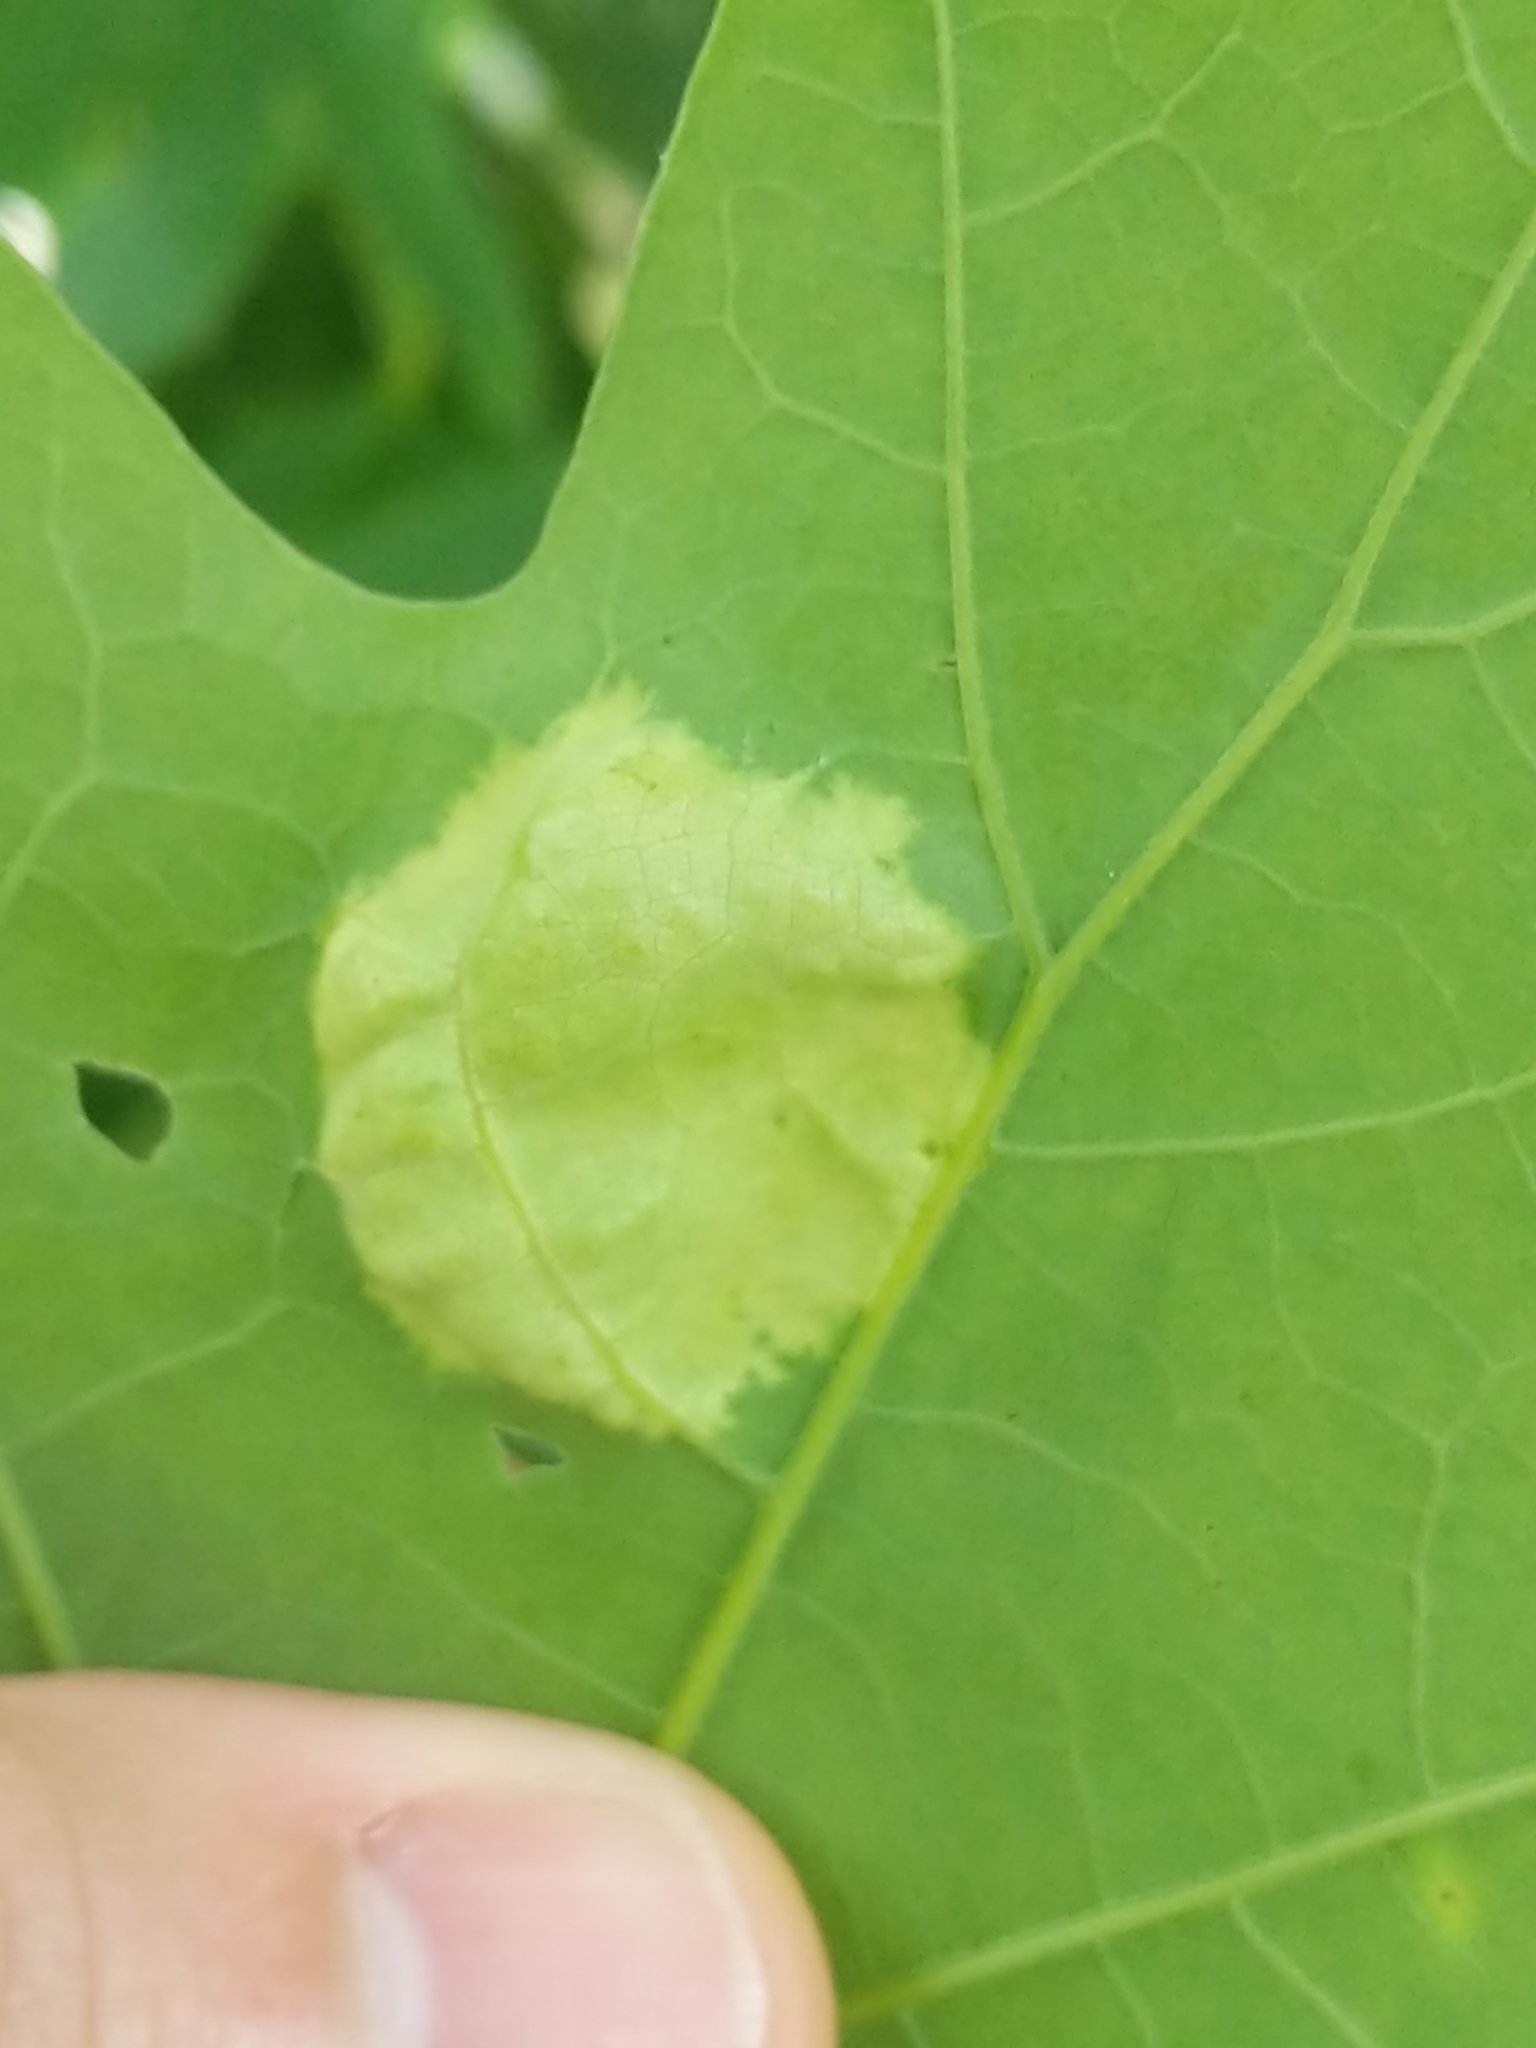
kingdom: Fungi
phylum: Ascomycota
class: Taphrinomycetes
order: Taphrinales
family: Taphrinaceae
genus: Taphrina
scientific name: Taphrina caerulescens
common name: Oak leaf blister
